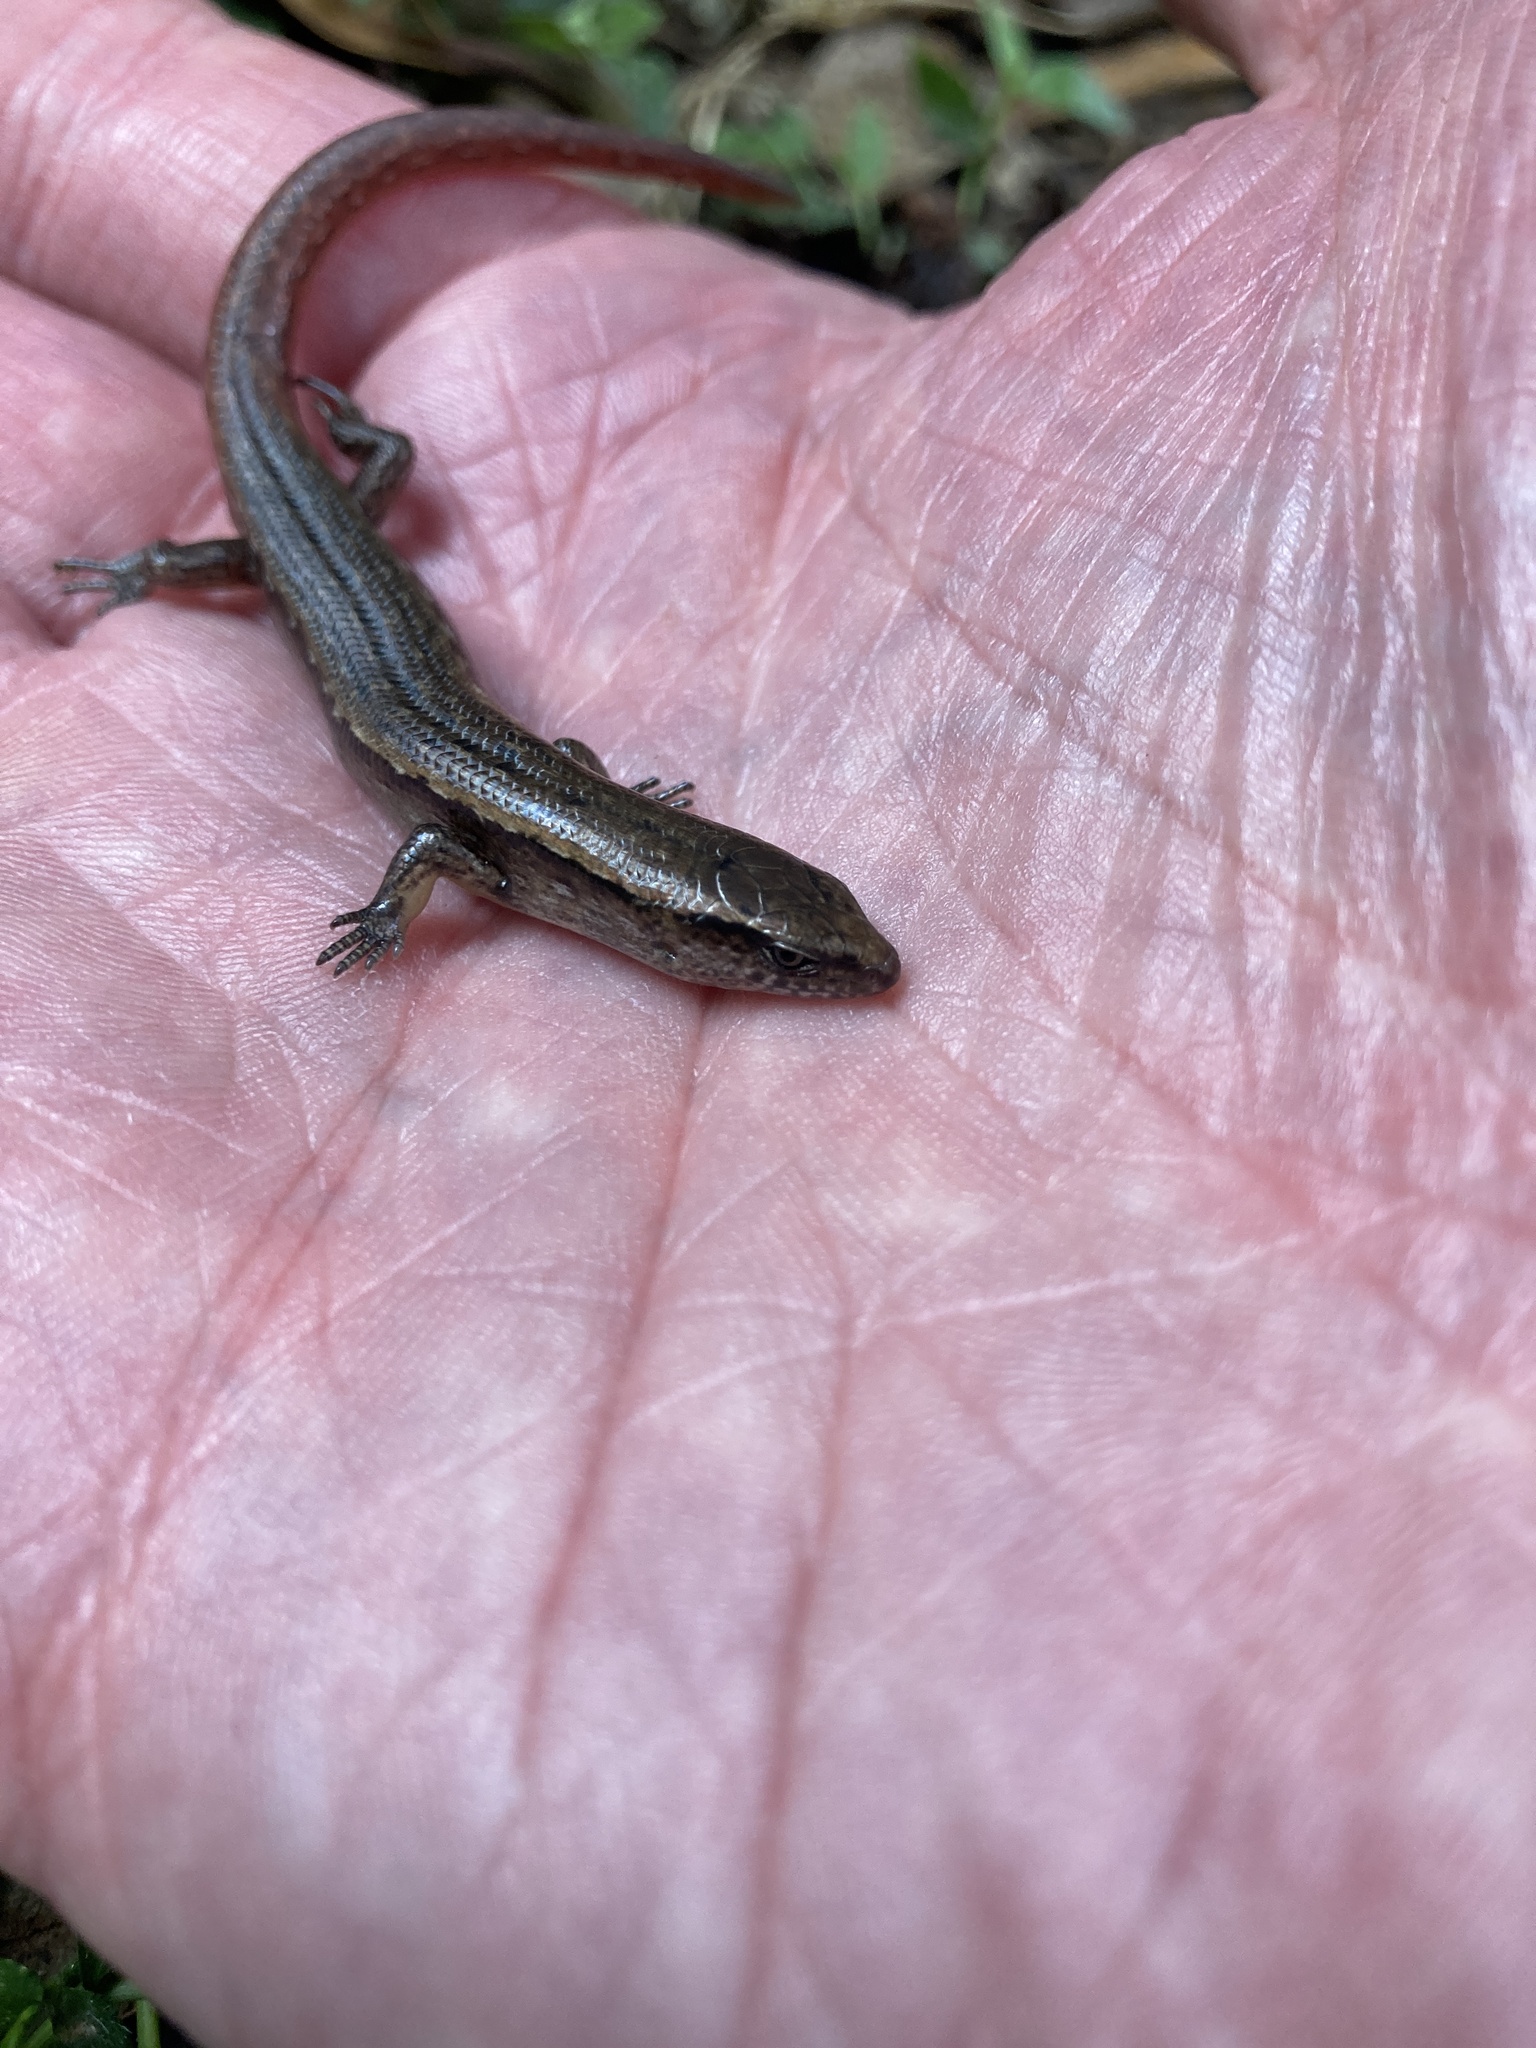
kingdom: Animalia
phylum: Chordata
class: Squamata
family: Scincidae
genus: Oligosoma
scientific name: Oligosoma aeneum
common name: Copper skink
